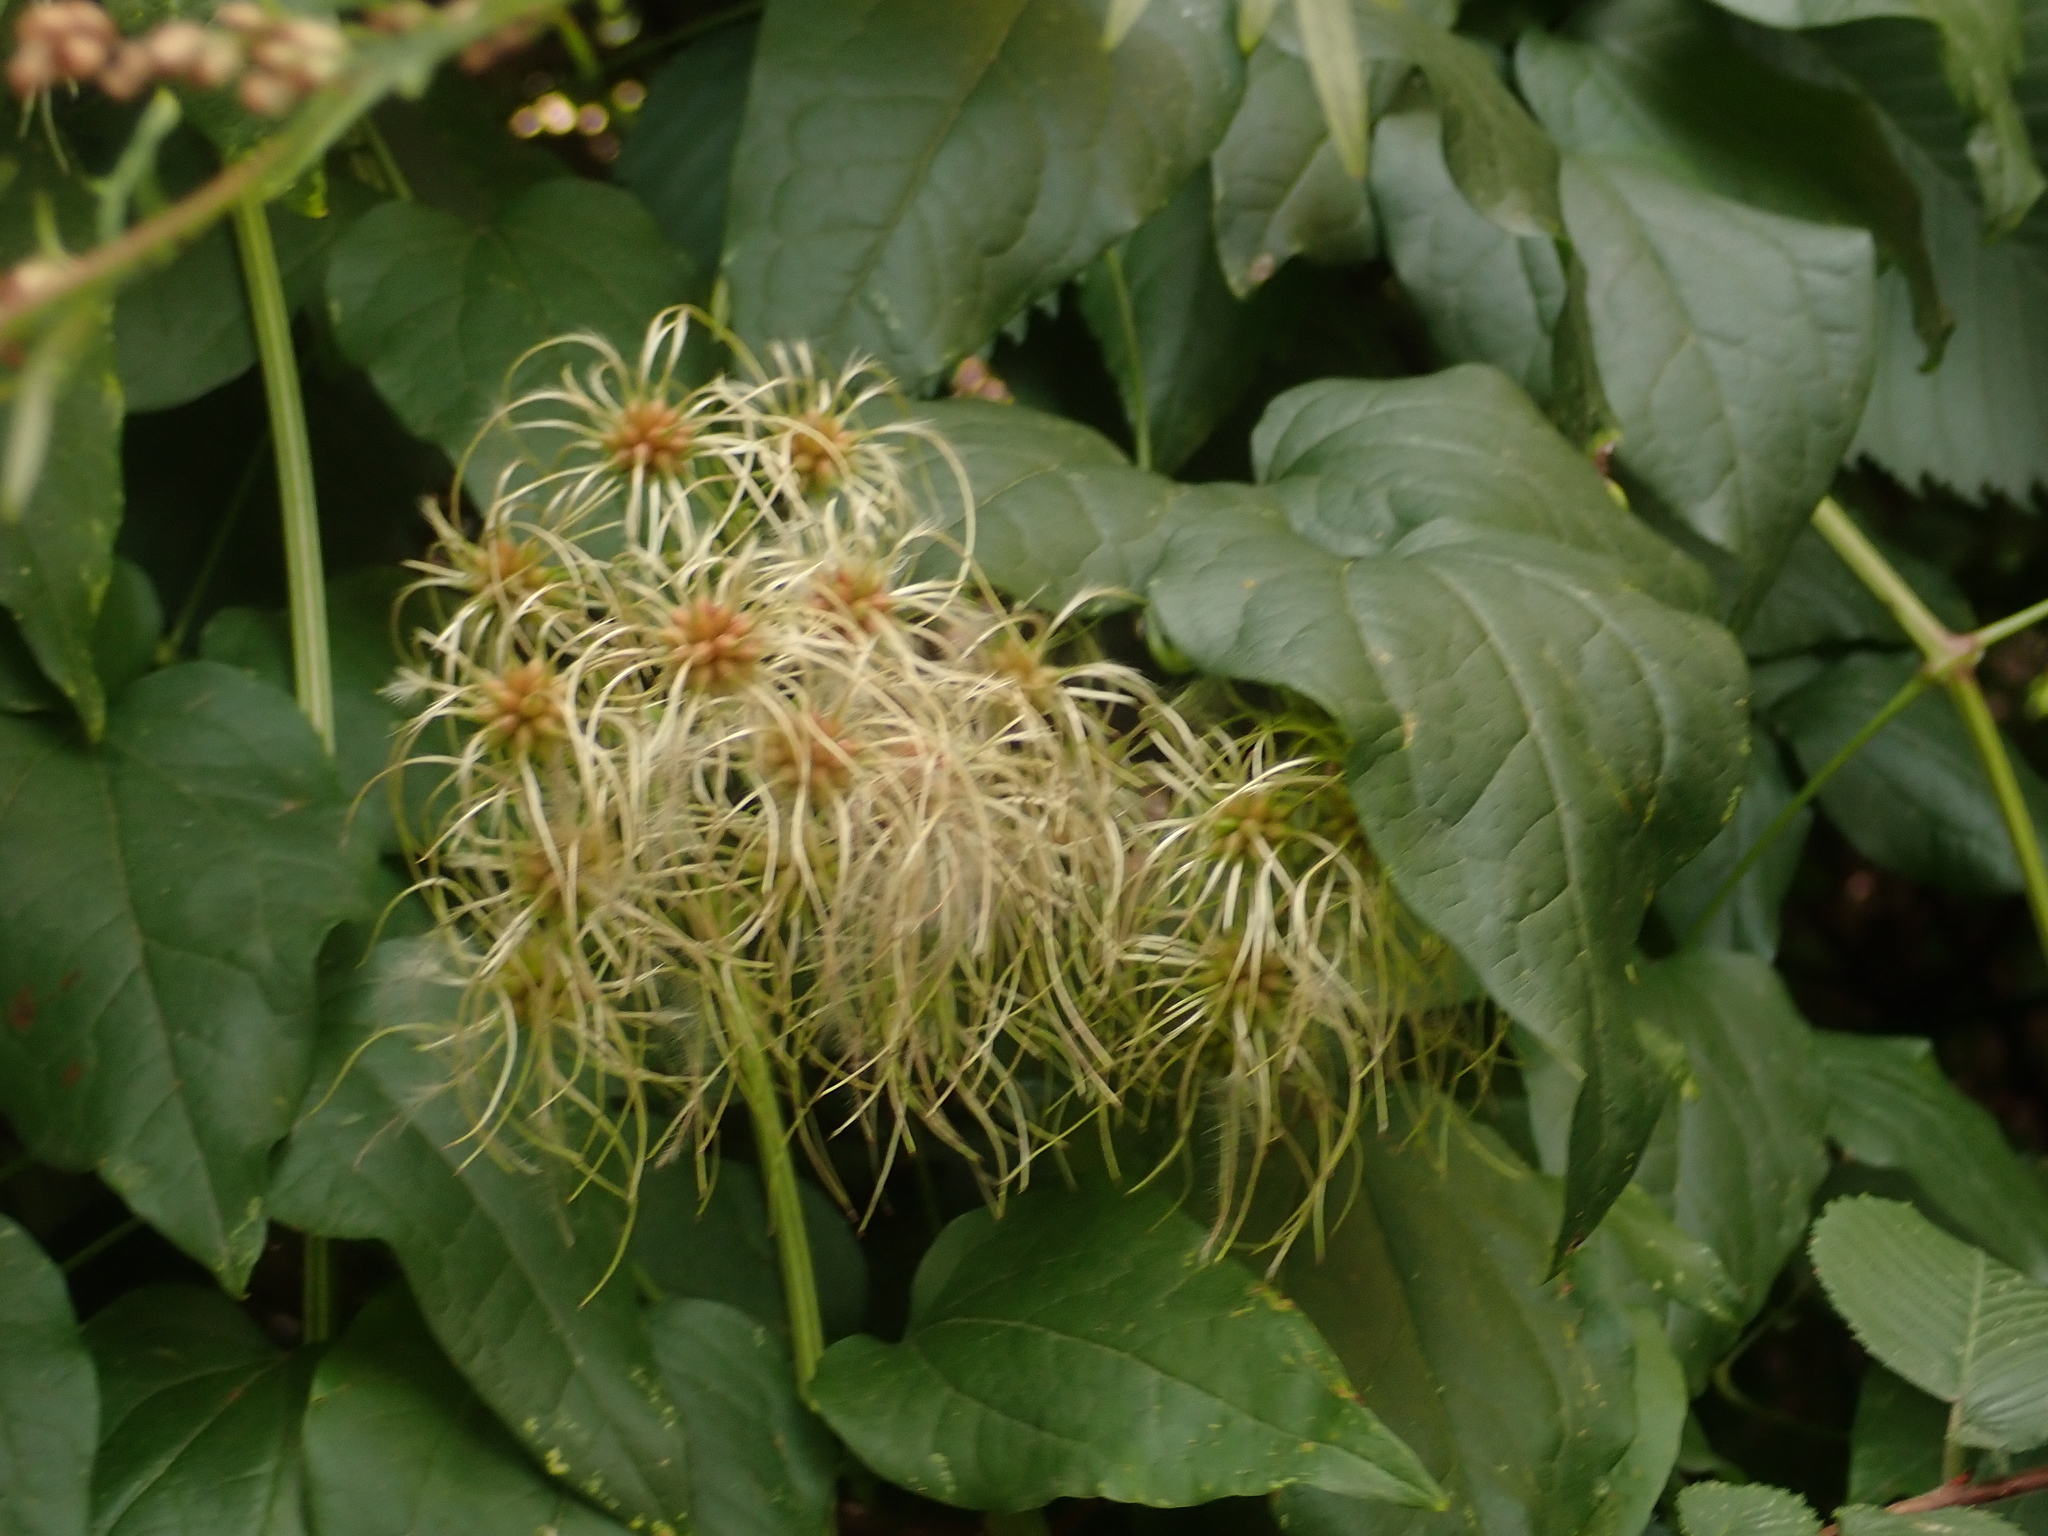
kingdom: Plantae
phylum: Tracheophyta
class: Magnoliopsida
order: Ranunculales
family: Ranunculaceae
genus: Clematis
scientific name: Clematis vitalba
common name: Evergreen clematis
